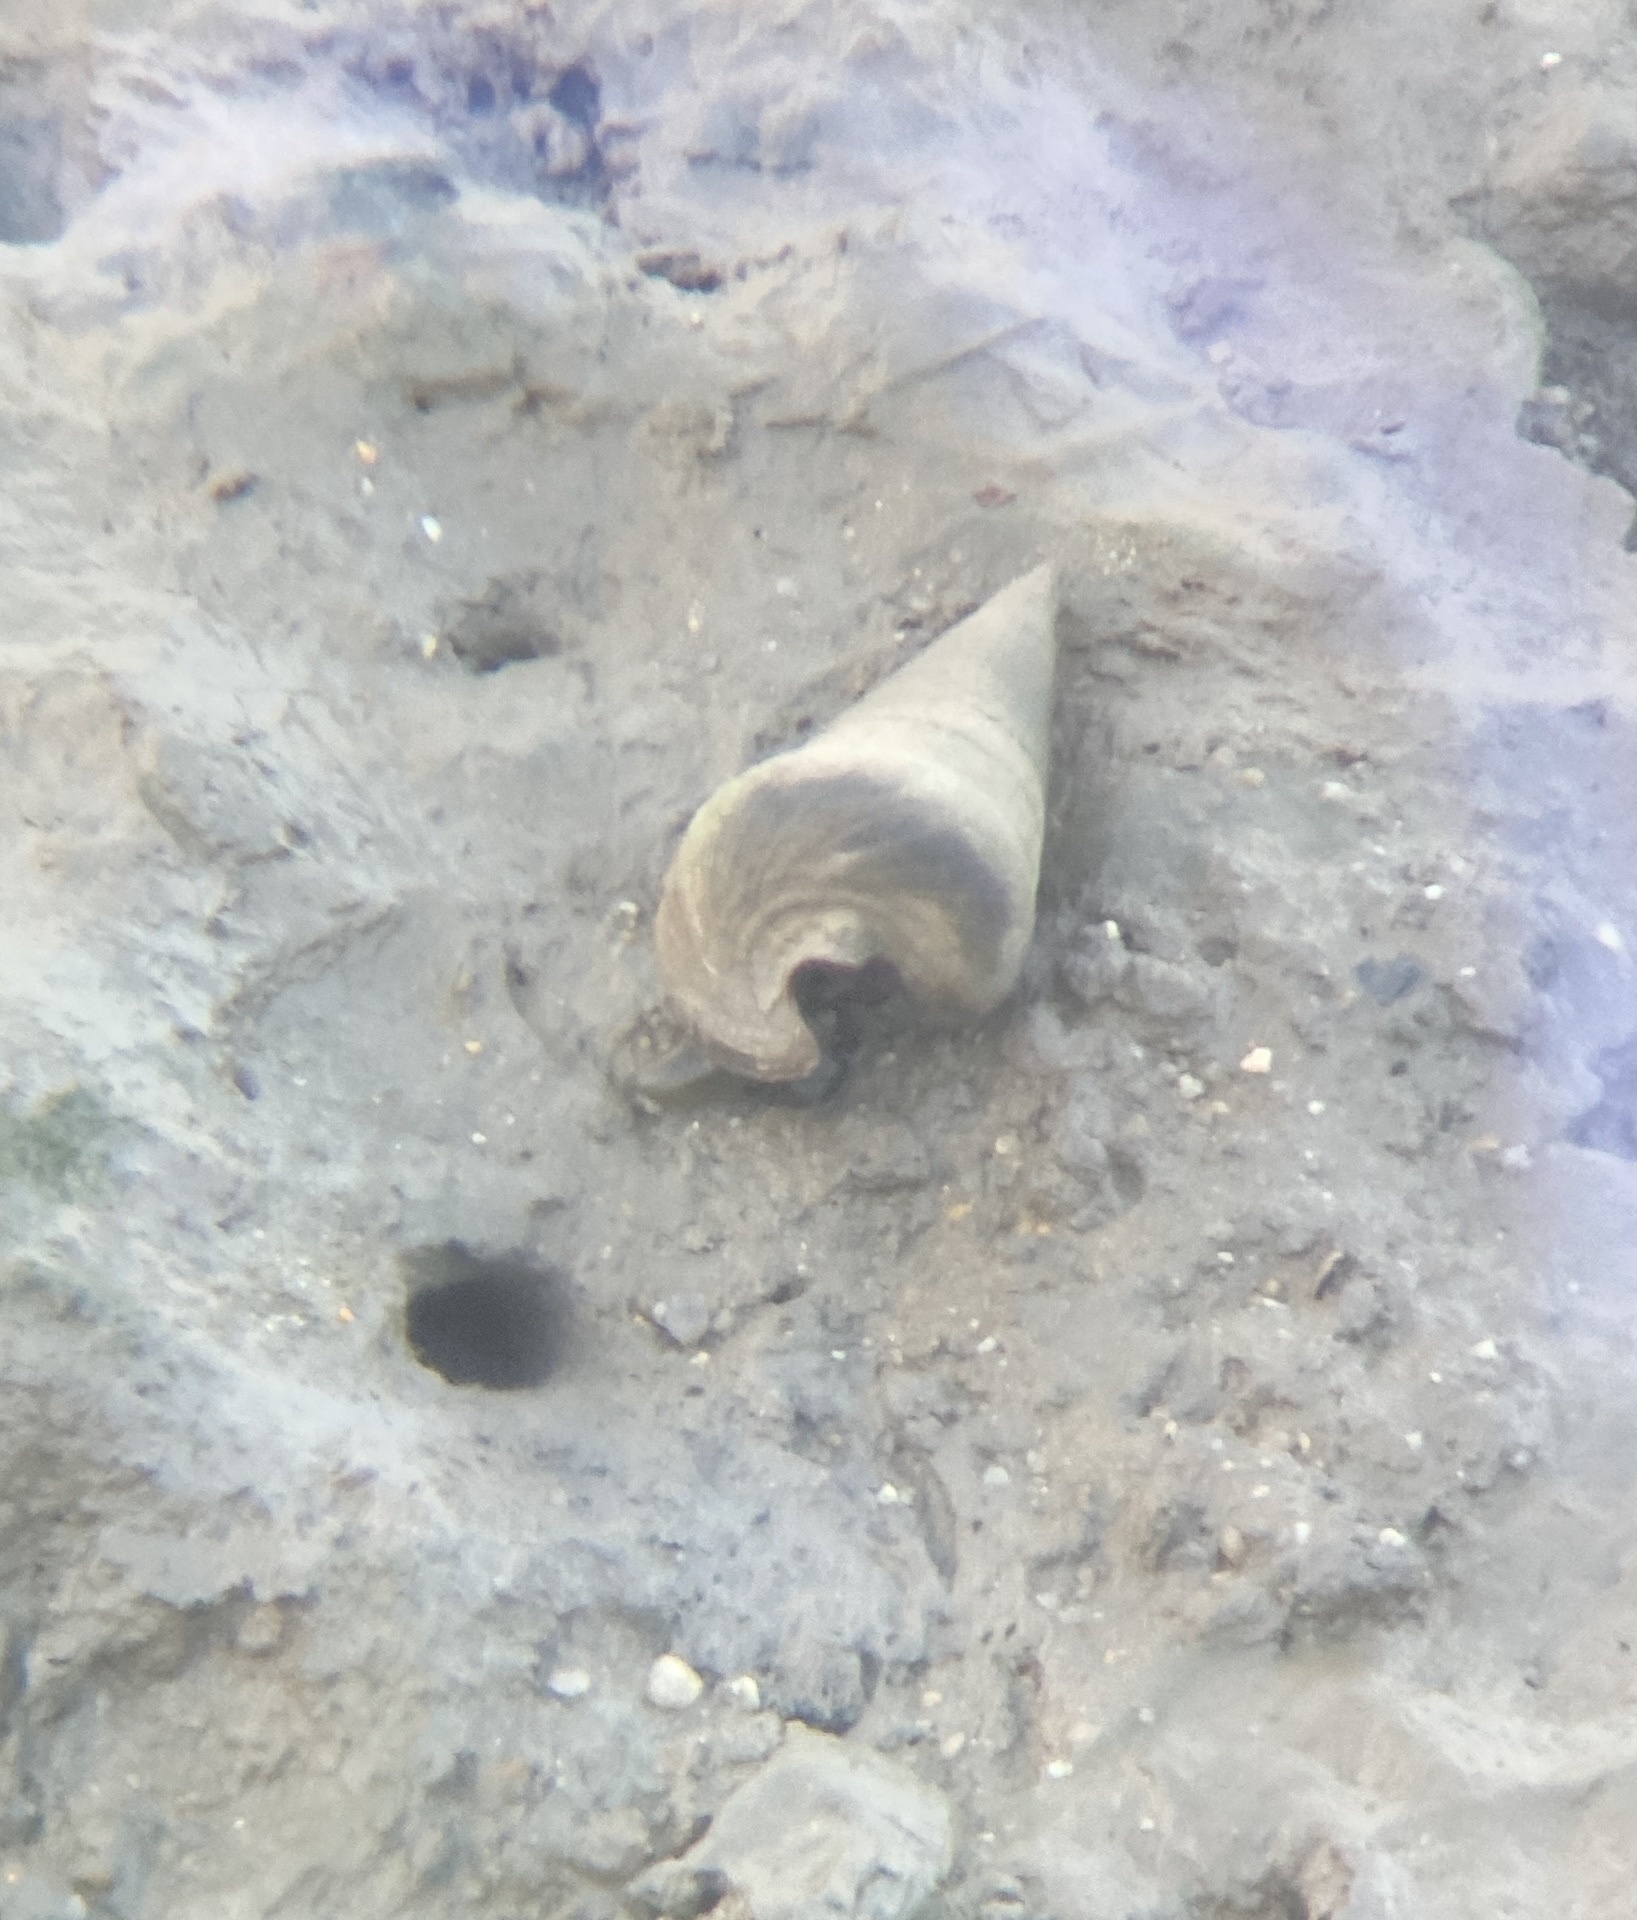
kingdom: Animalia
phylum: Mollusca
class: Gastropoda
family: Potamididae
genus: Telescopium
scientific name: Telescopium telescopium
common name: Telescope creeper
